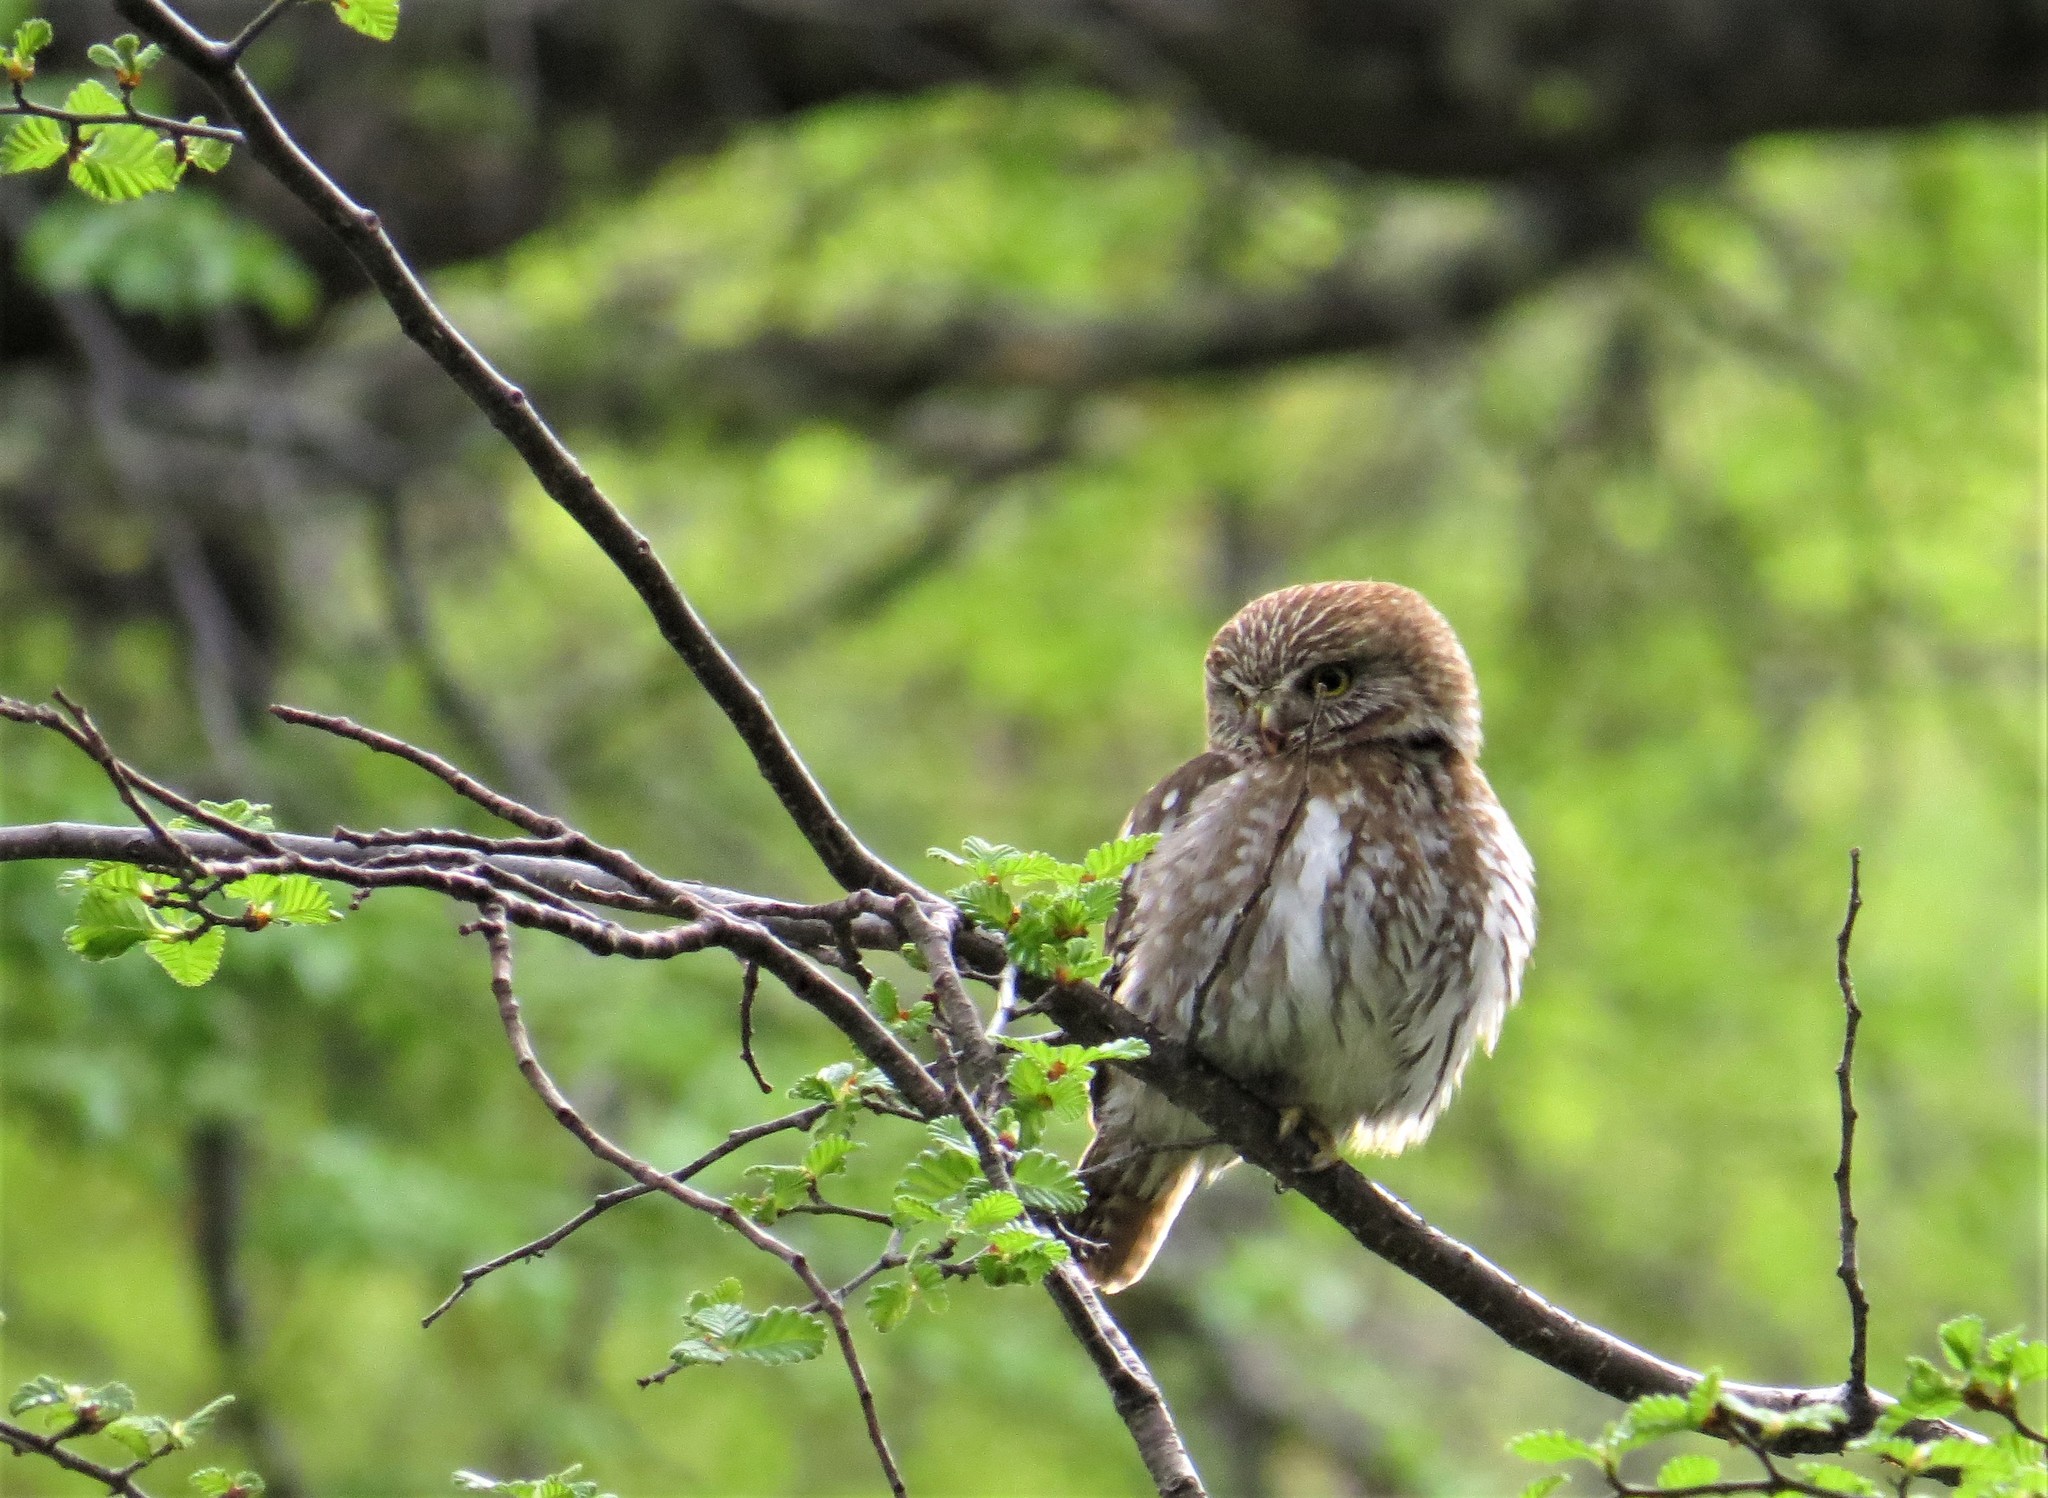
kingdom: Animalia
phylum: Chordata
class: Aves
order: Strigiformes
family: Strigidae
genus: Glaucidium
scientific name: Glaucidium nana
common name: Austral pygmy-owl
